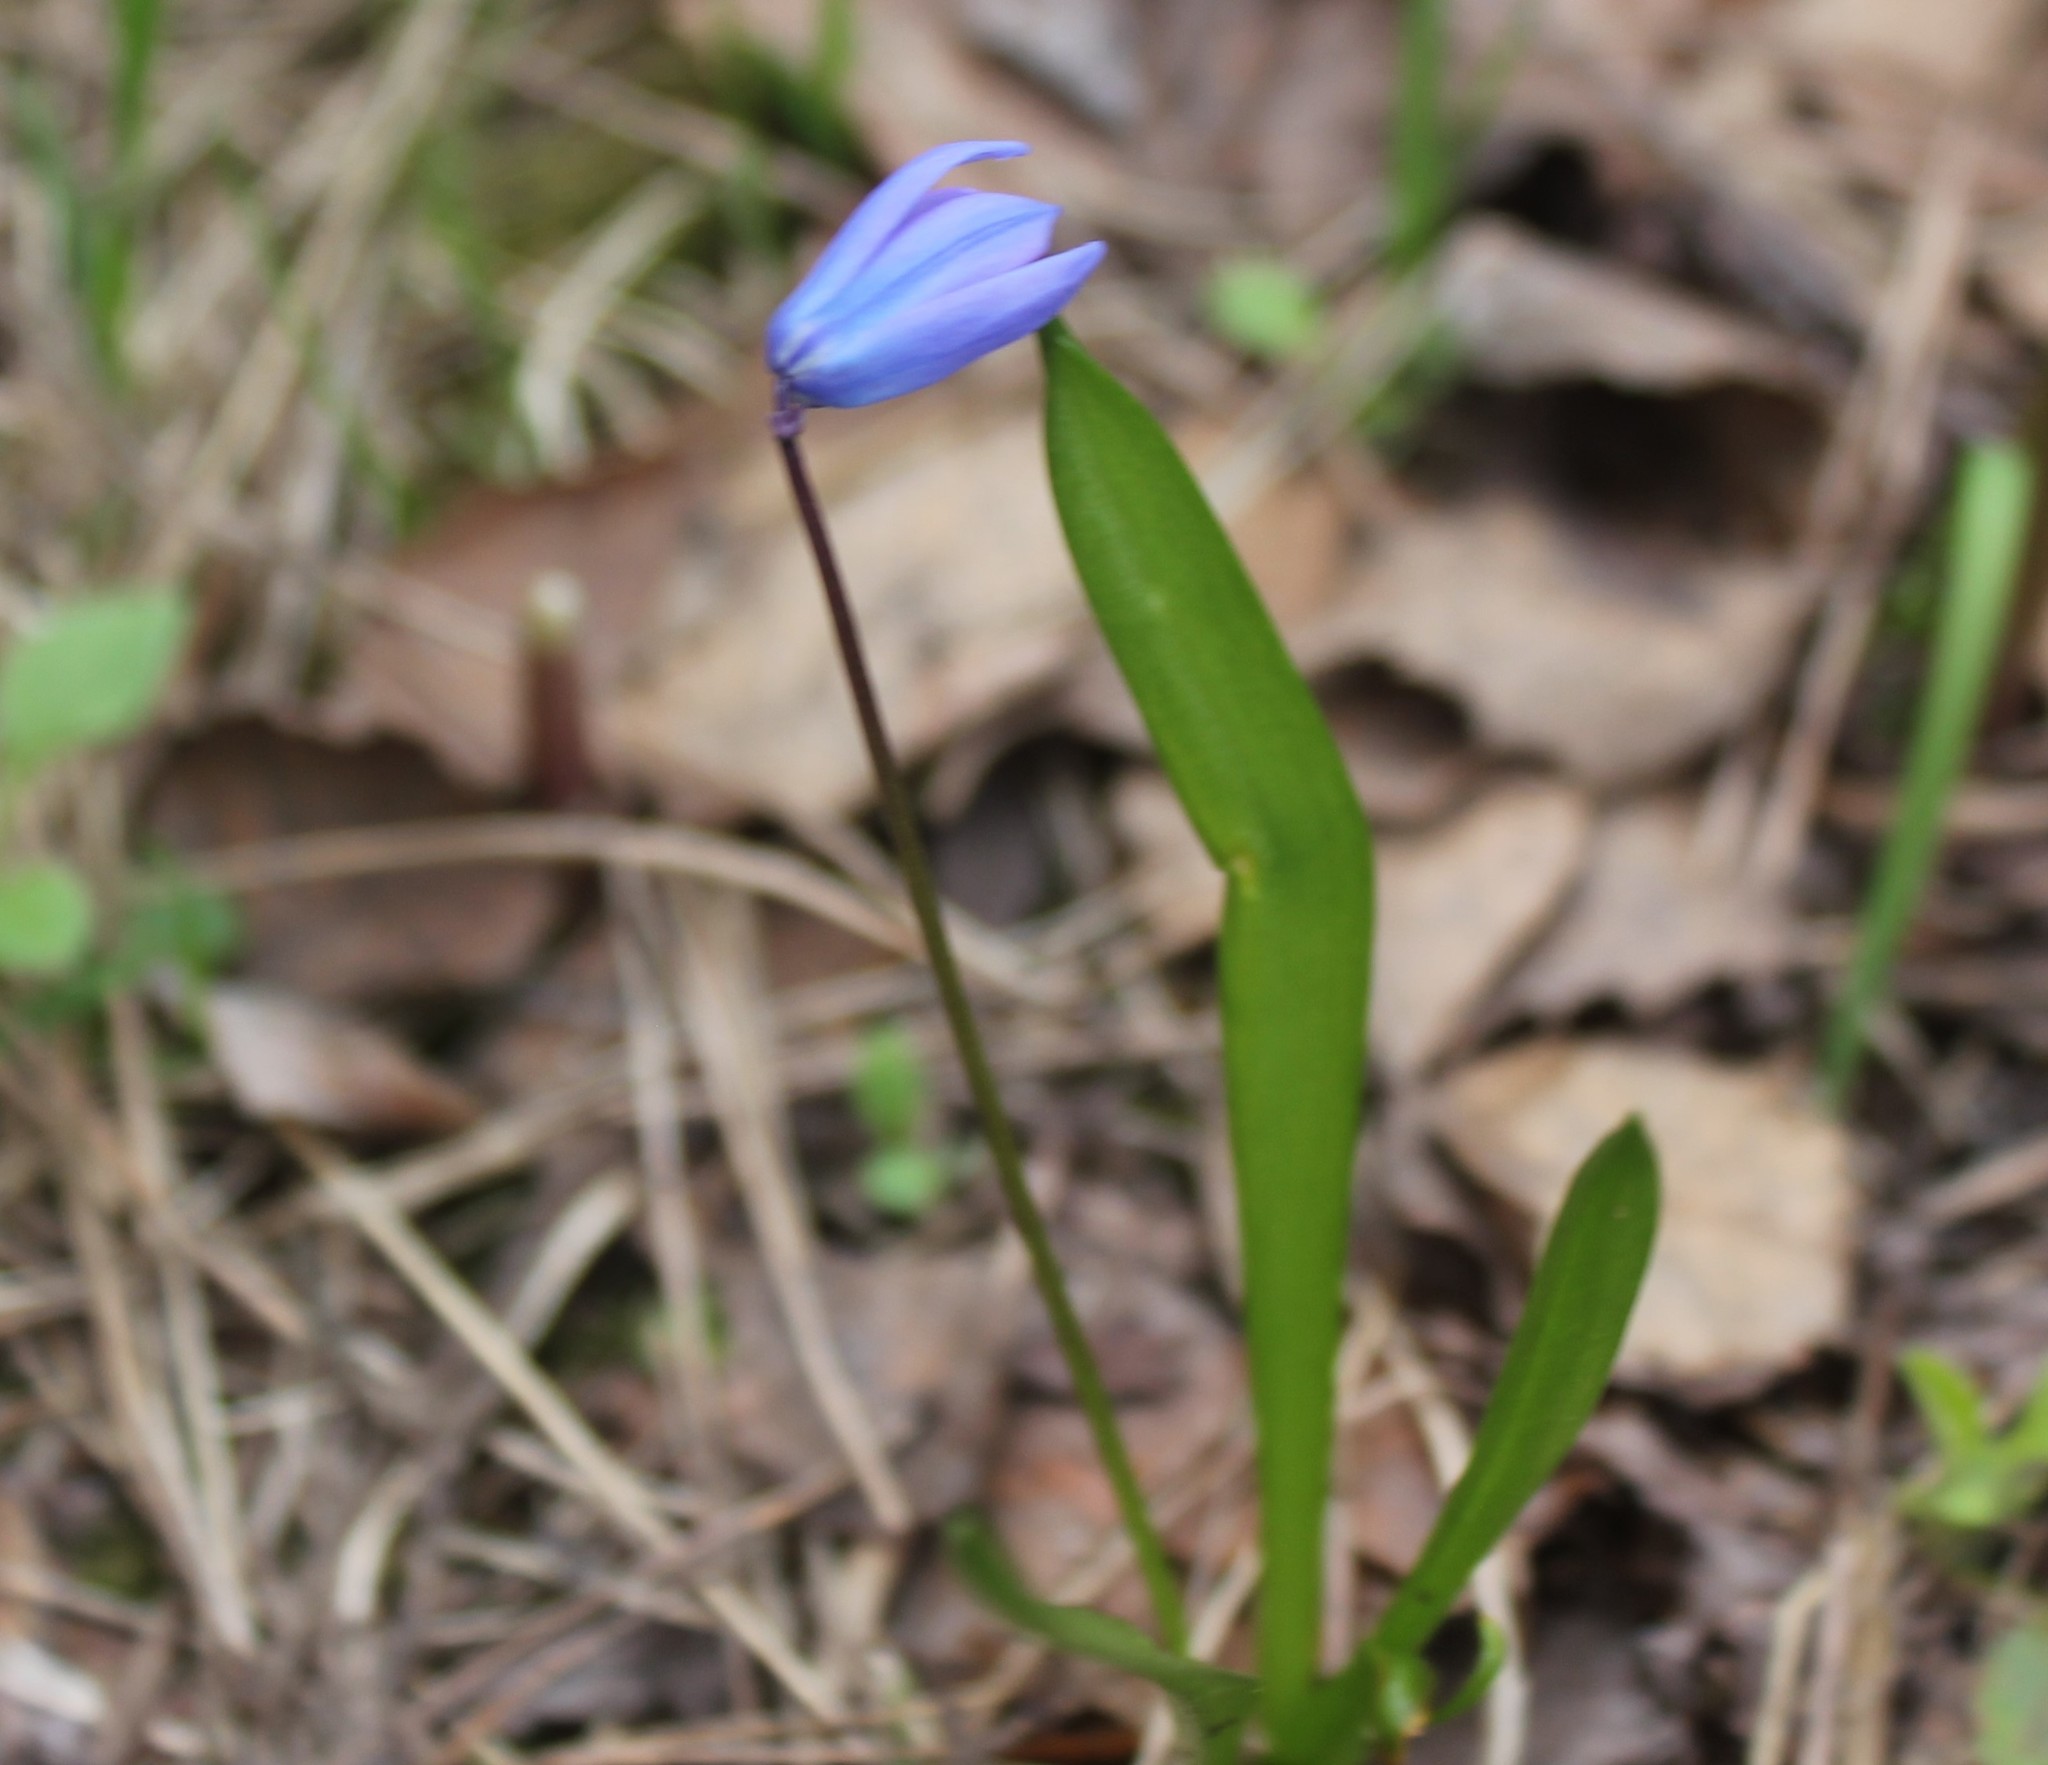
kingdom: Plantae
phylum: Tracheophyta
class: Liliopsida
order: Asparagales
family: Asparagaceae
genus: Scilla
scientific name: Scilla siberica
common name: Siberian squill
